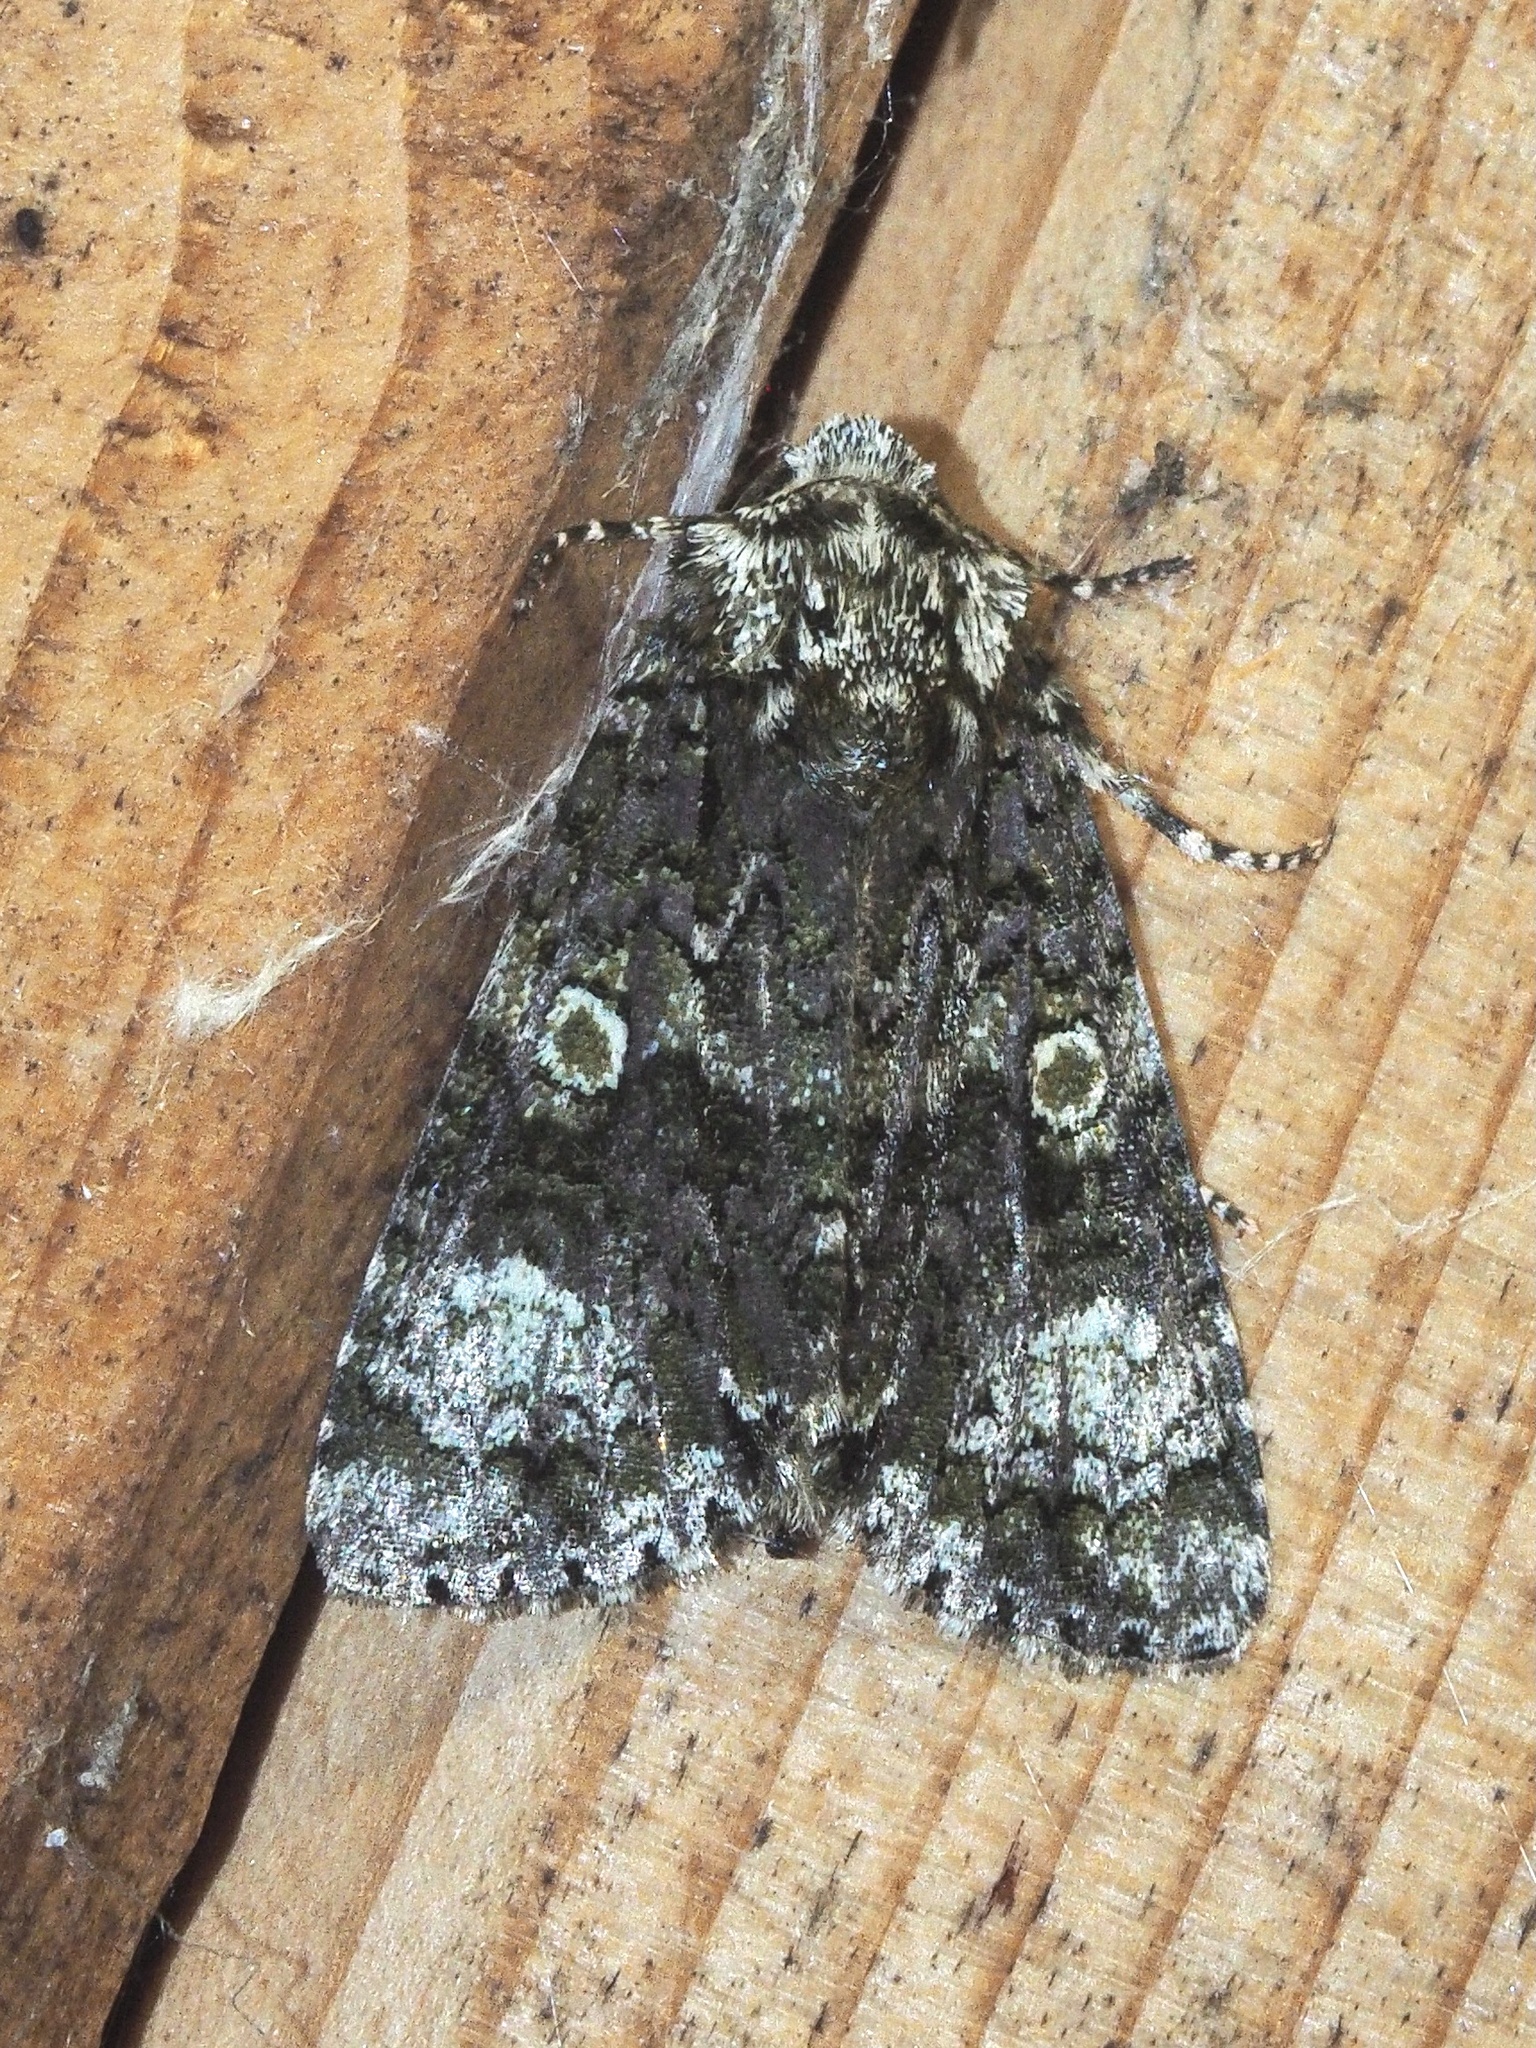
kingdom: Animalia
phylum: Arthropoda
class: Insecta
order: Lepidoptera
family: Noctuidae
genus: Craniophora
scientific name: Craniophora ligustri
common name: Coronet
